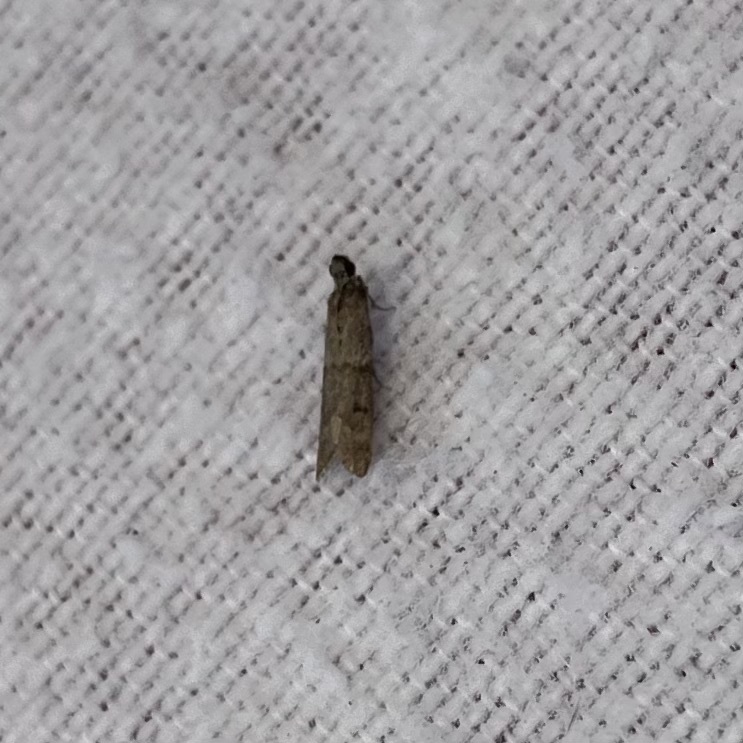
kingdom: Animalia
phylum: Arthropoda
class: Insecta
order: Lepidoptera
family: Pyralidae
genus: Ephestiodes
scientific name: Ephestiodes gilvescentella
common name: Moth
